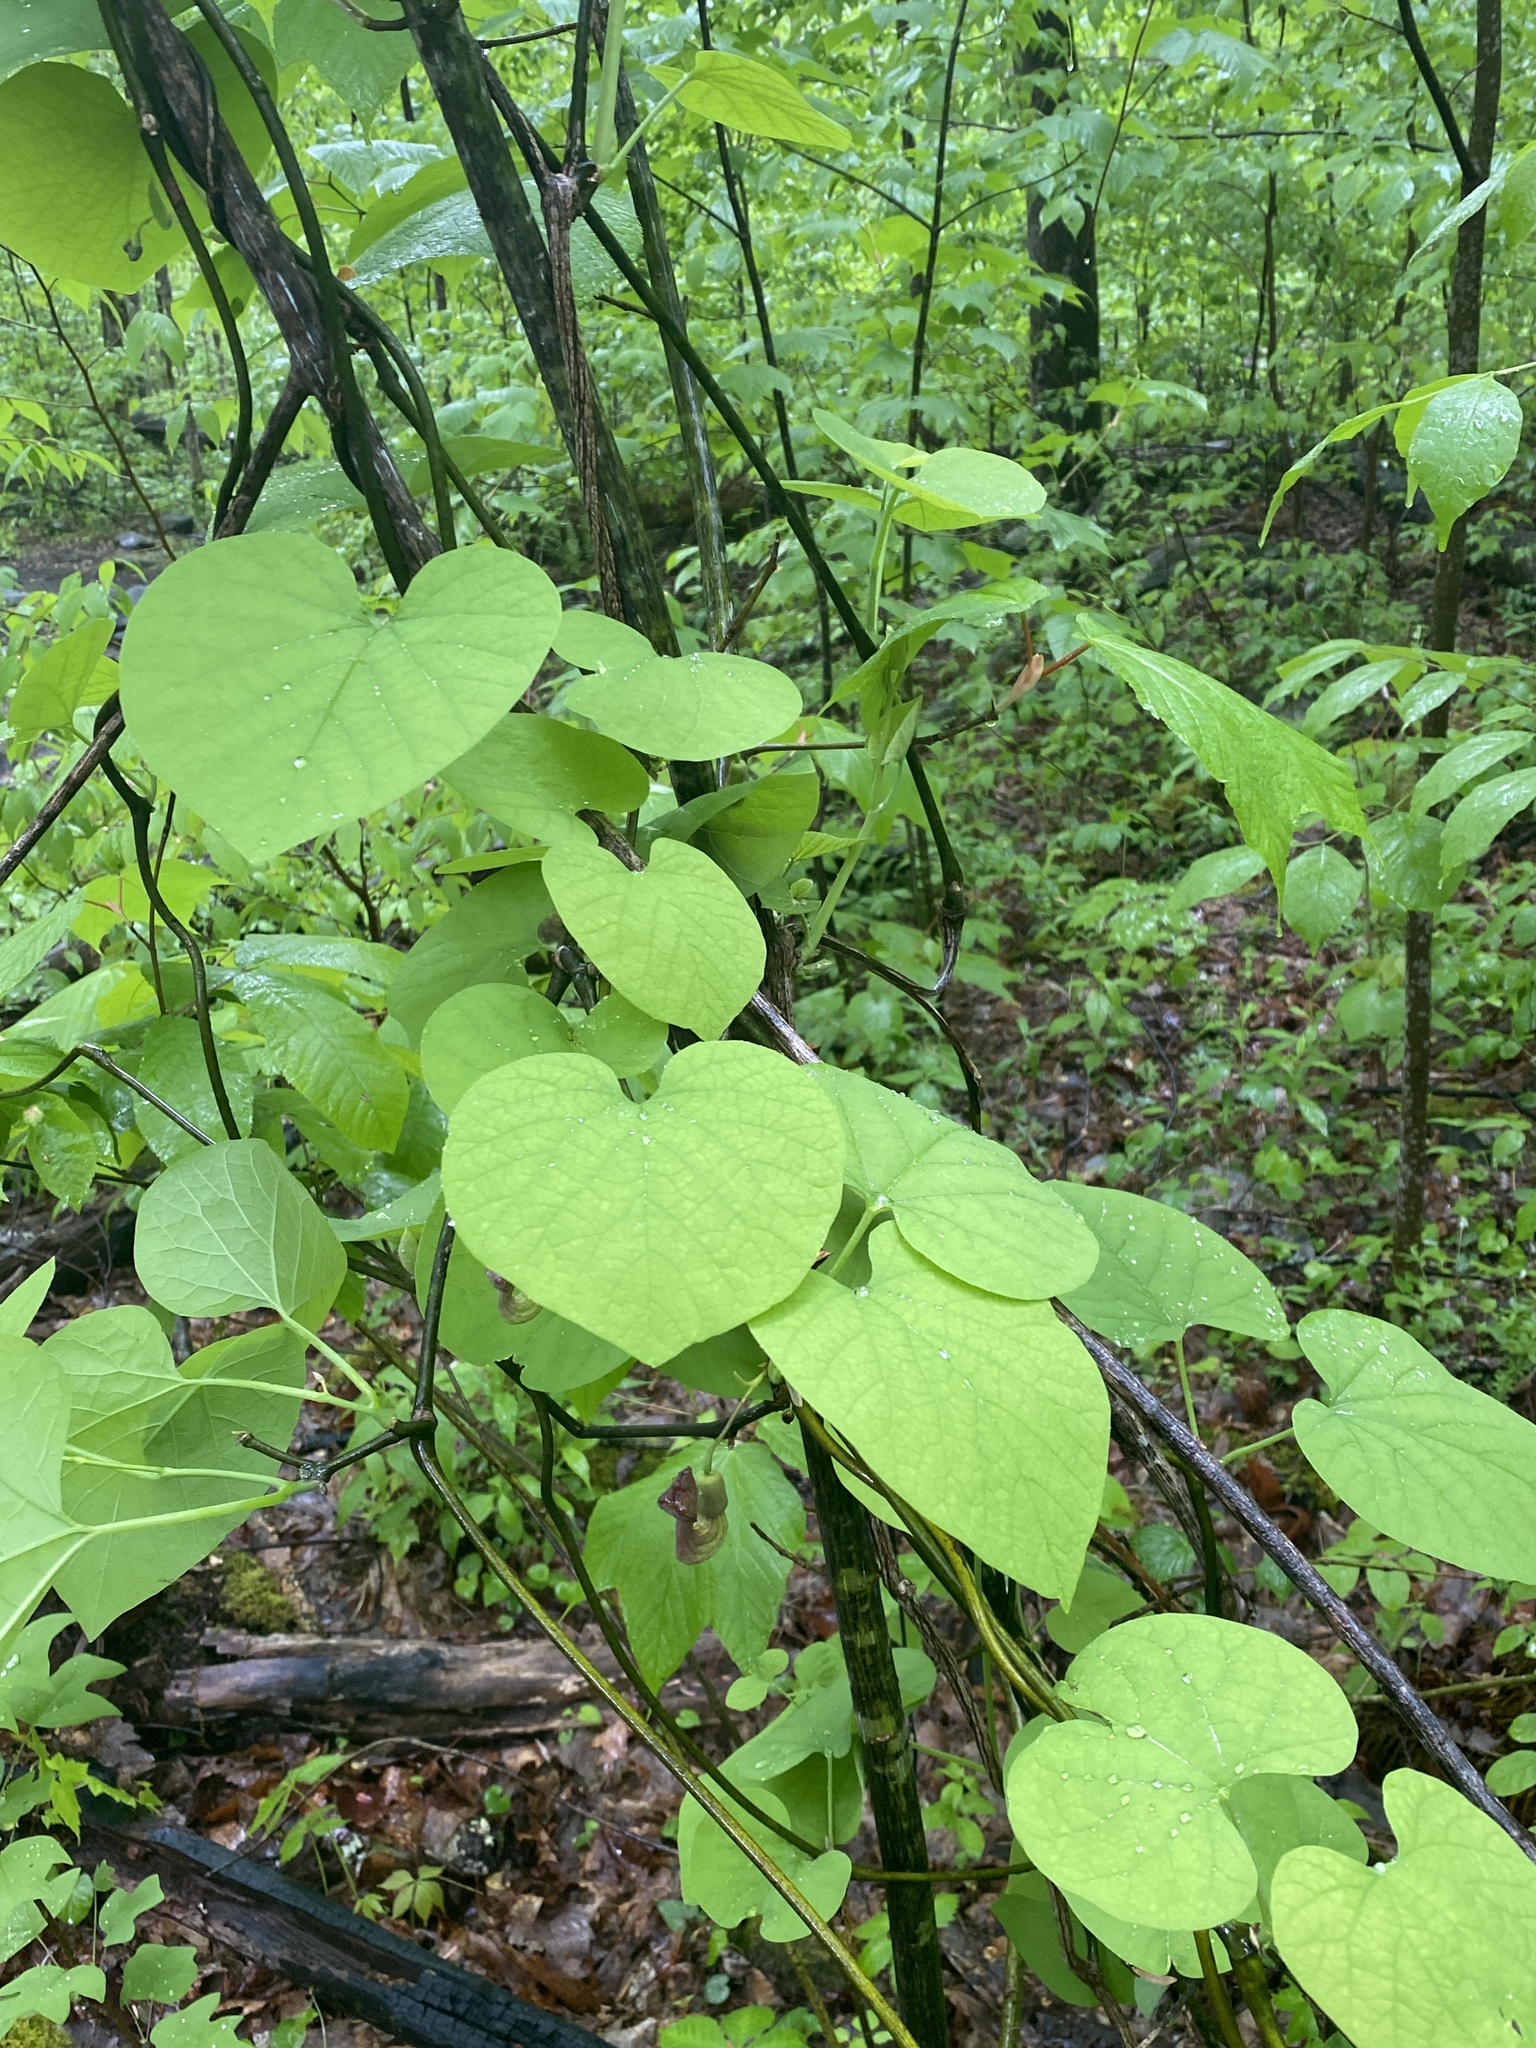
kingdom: Plantae
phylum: Tracheophyta
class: Magnoliopsida
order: Piperales
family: Aristolochiaceae
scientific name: Aristolochiaceae
